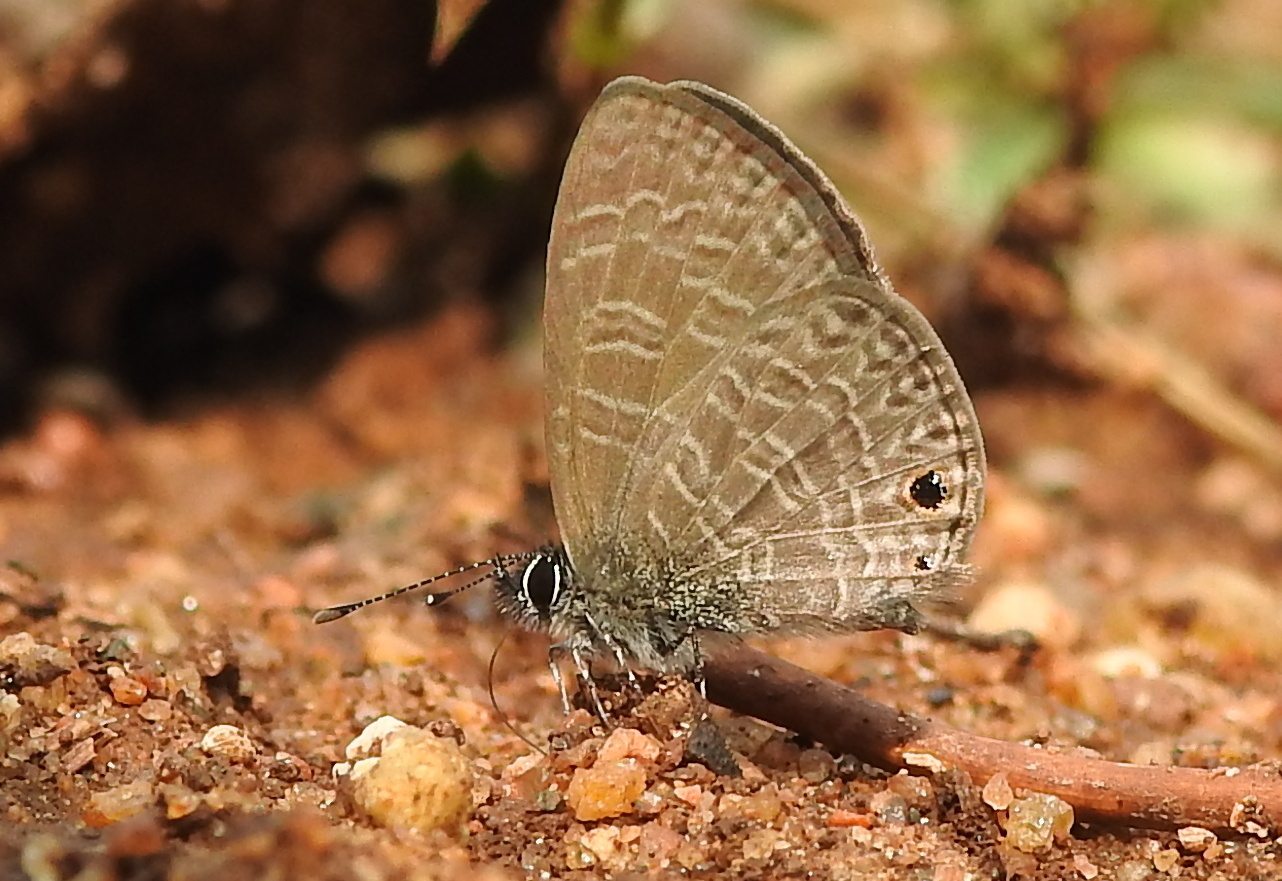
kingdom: Animalia
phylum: Arthropoda
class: Insecta
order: Lepidoptera
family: Lycaenidae
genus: Prosotas
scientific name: Prosotas dubiosa
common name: Tailless lineblue
